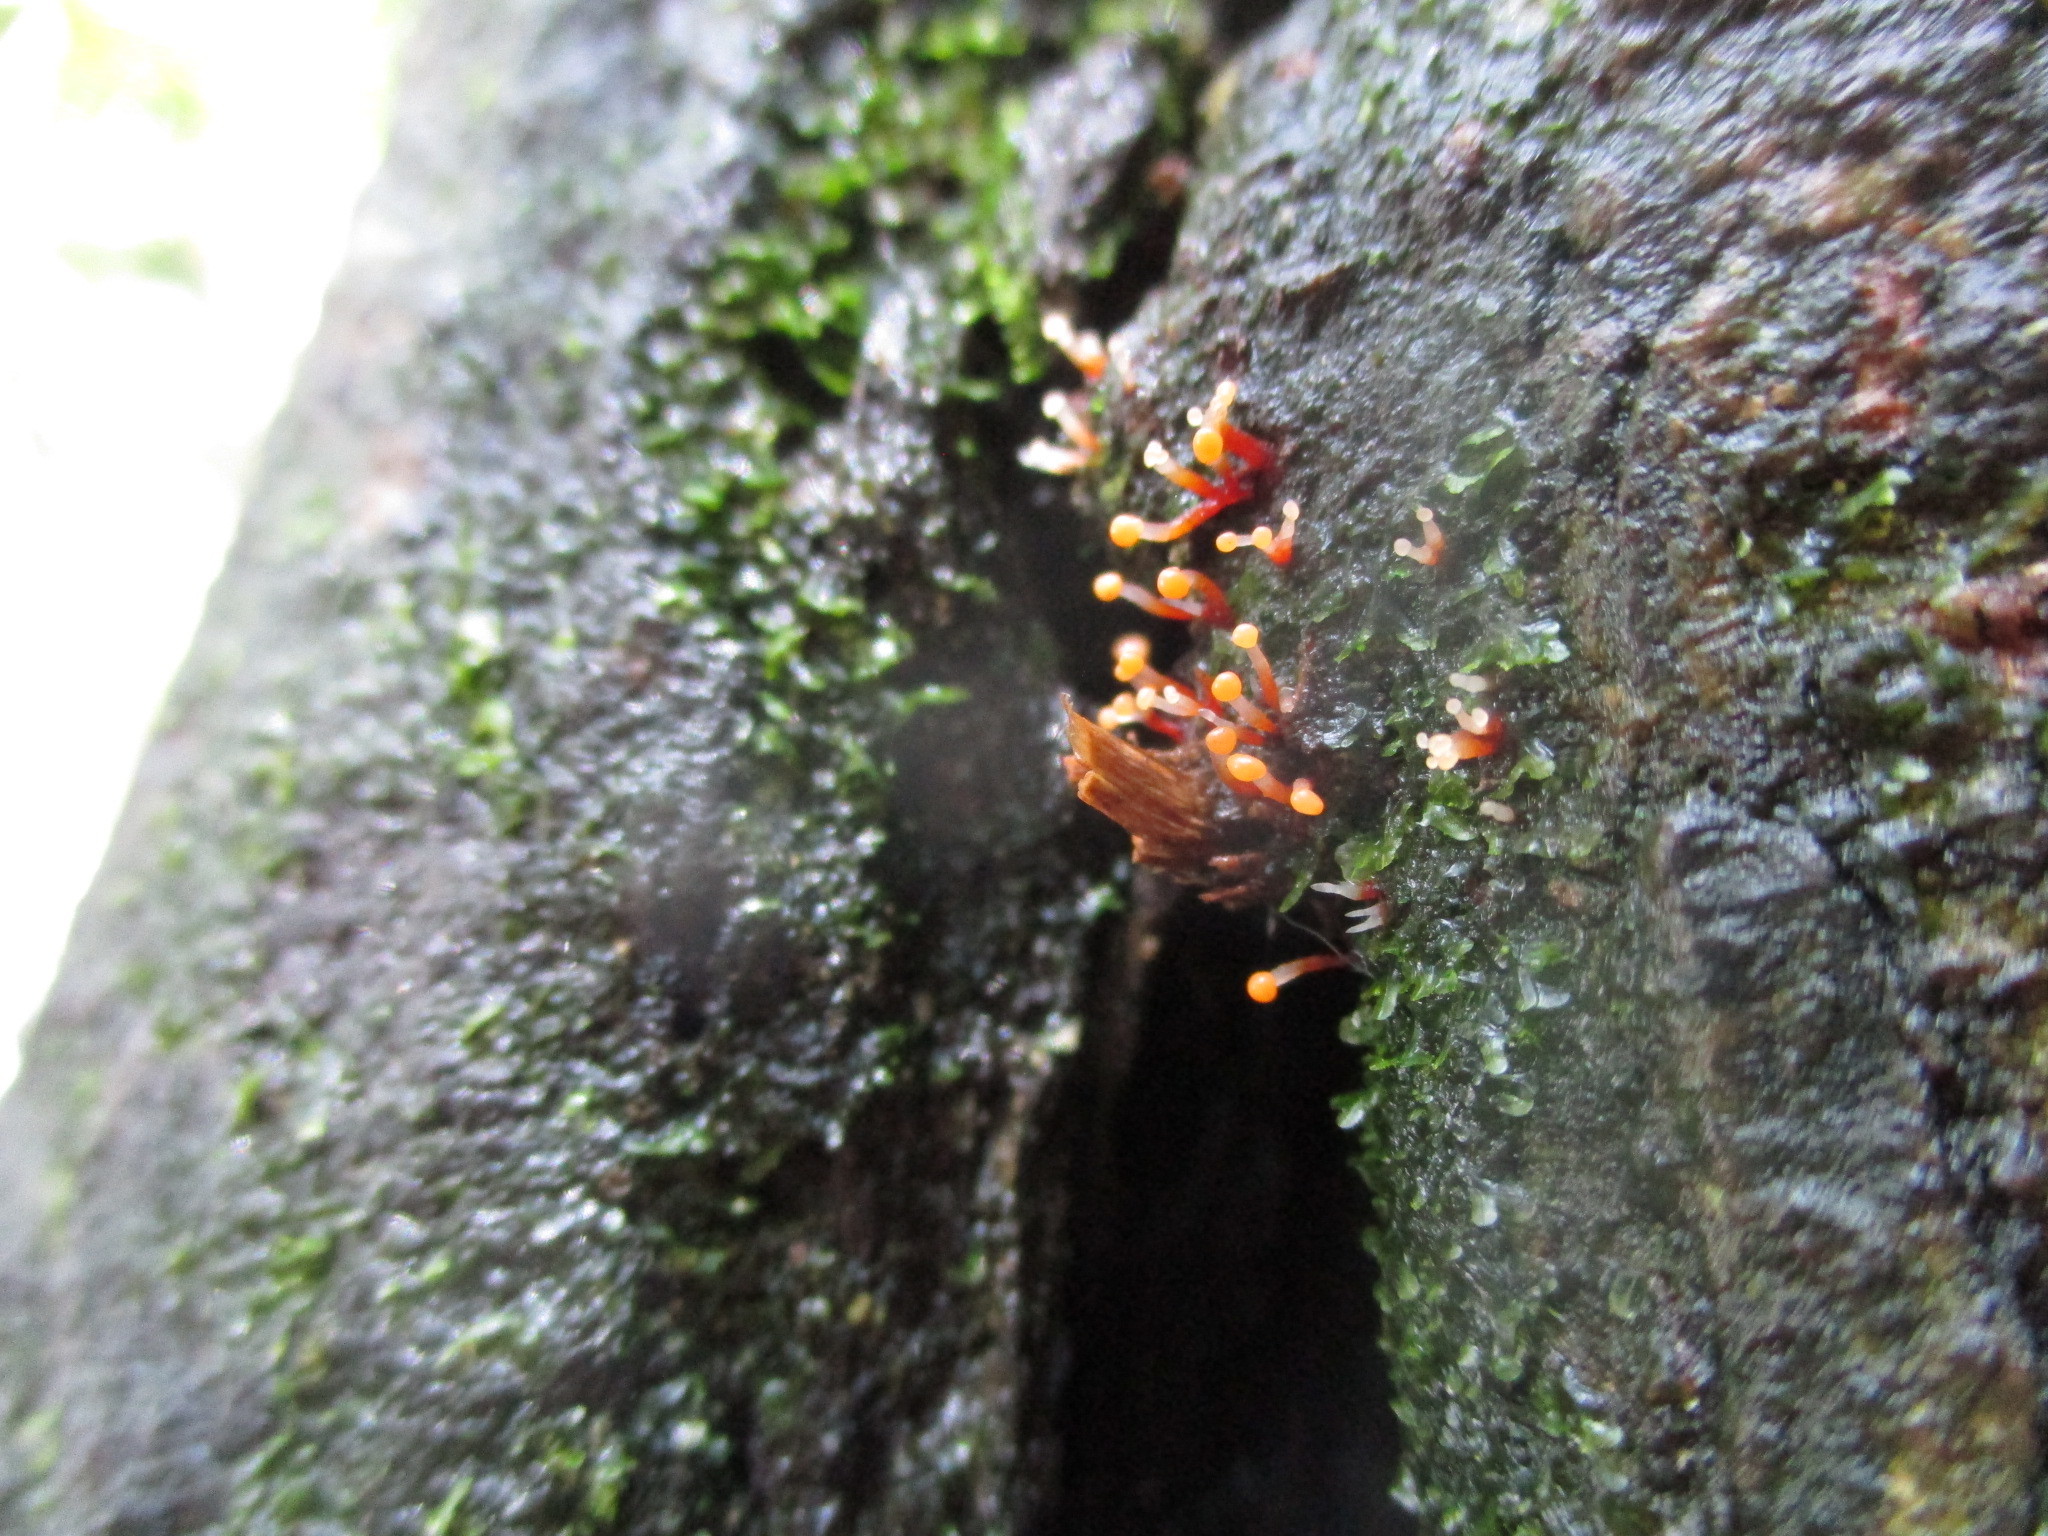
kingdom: Fungi
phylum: Ascomycota
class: Sordariomycetes
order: Hypocreales
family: Nectriaceae
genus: Nectria
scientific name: Nectria pseudotrichia
